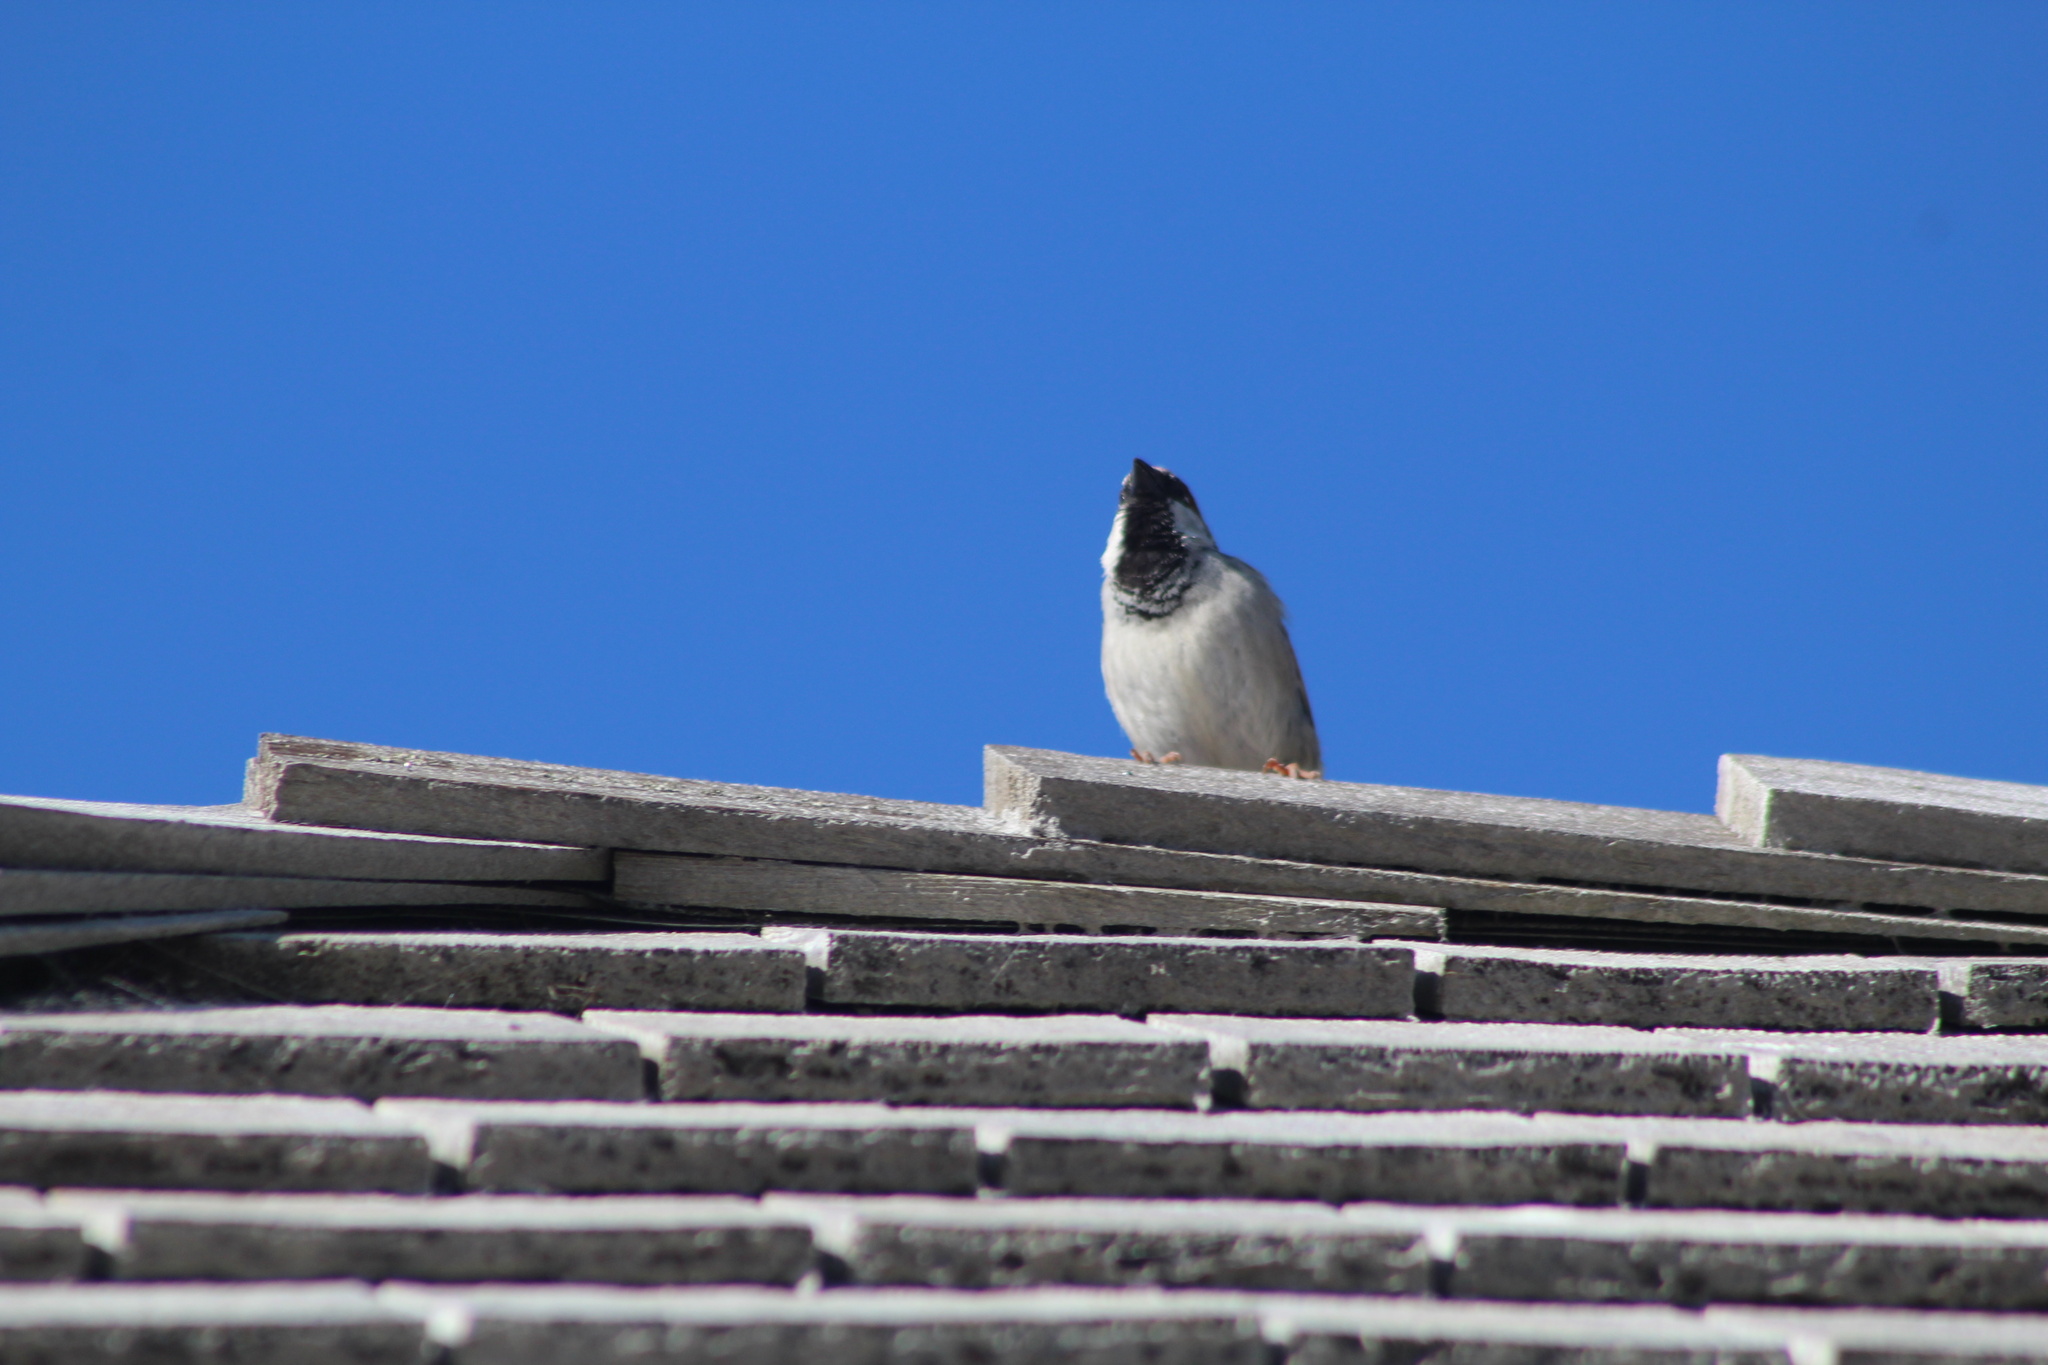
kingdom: Animalia
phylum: Chordata
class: Aves
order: Passeriformes
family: Passeridae
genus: Passer
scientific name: Passer domesticus
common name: House sparrow
